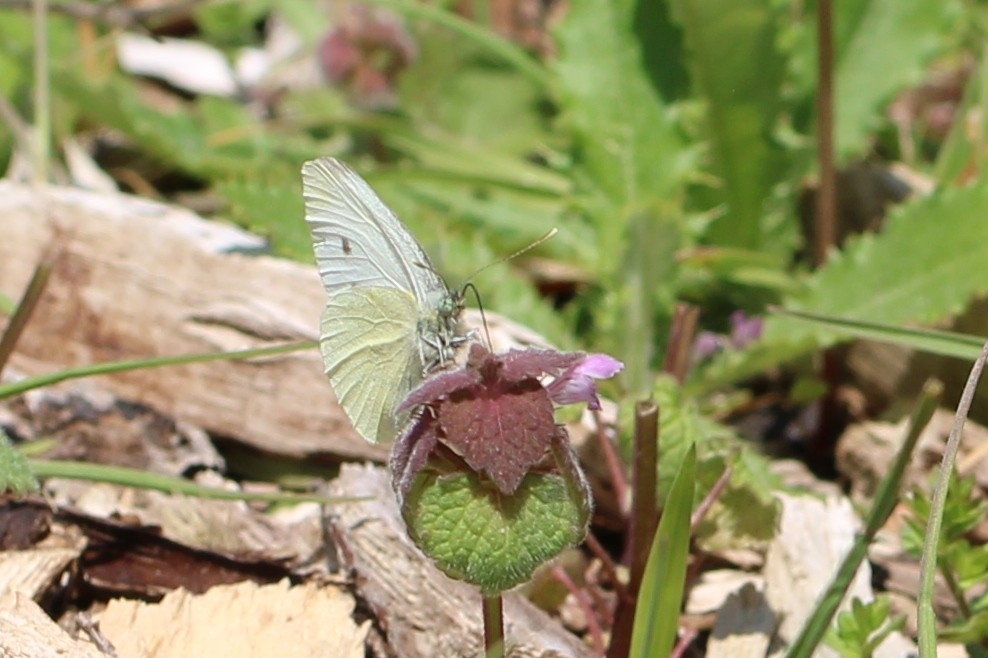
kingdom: Animalia
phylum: Arthropoda
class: Insecta
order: Lepidoptera
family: Pieridae
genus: Pieris
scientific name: Pieris rapae
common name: Small white
